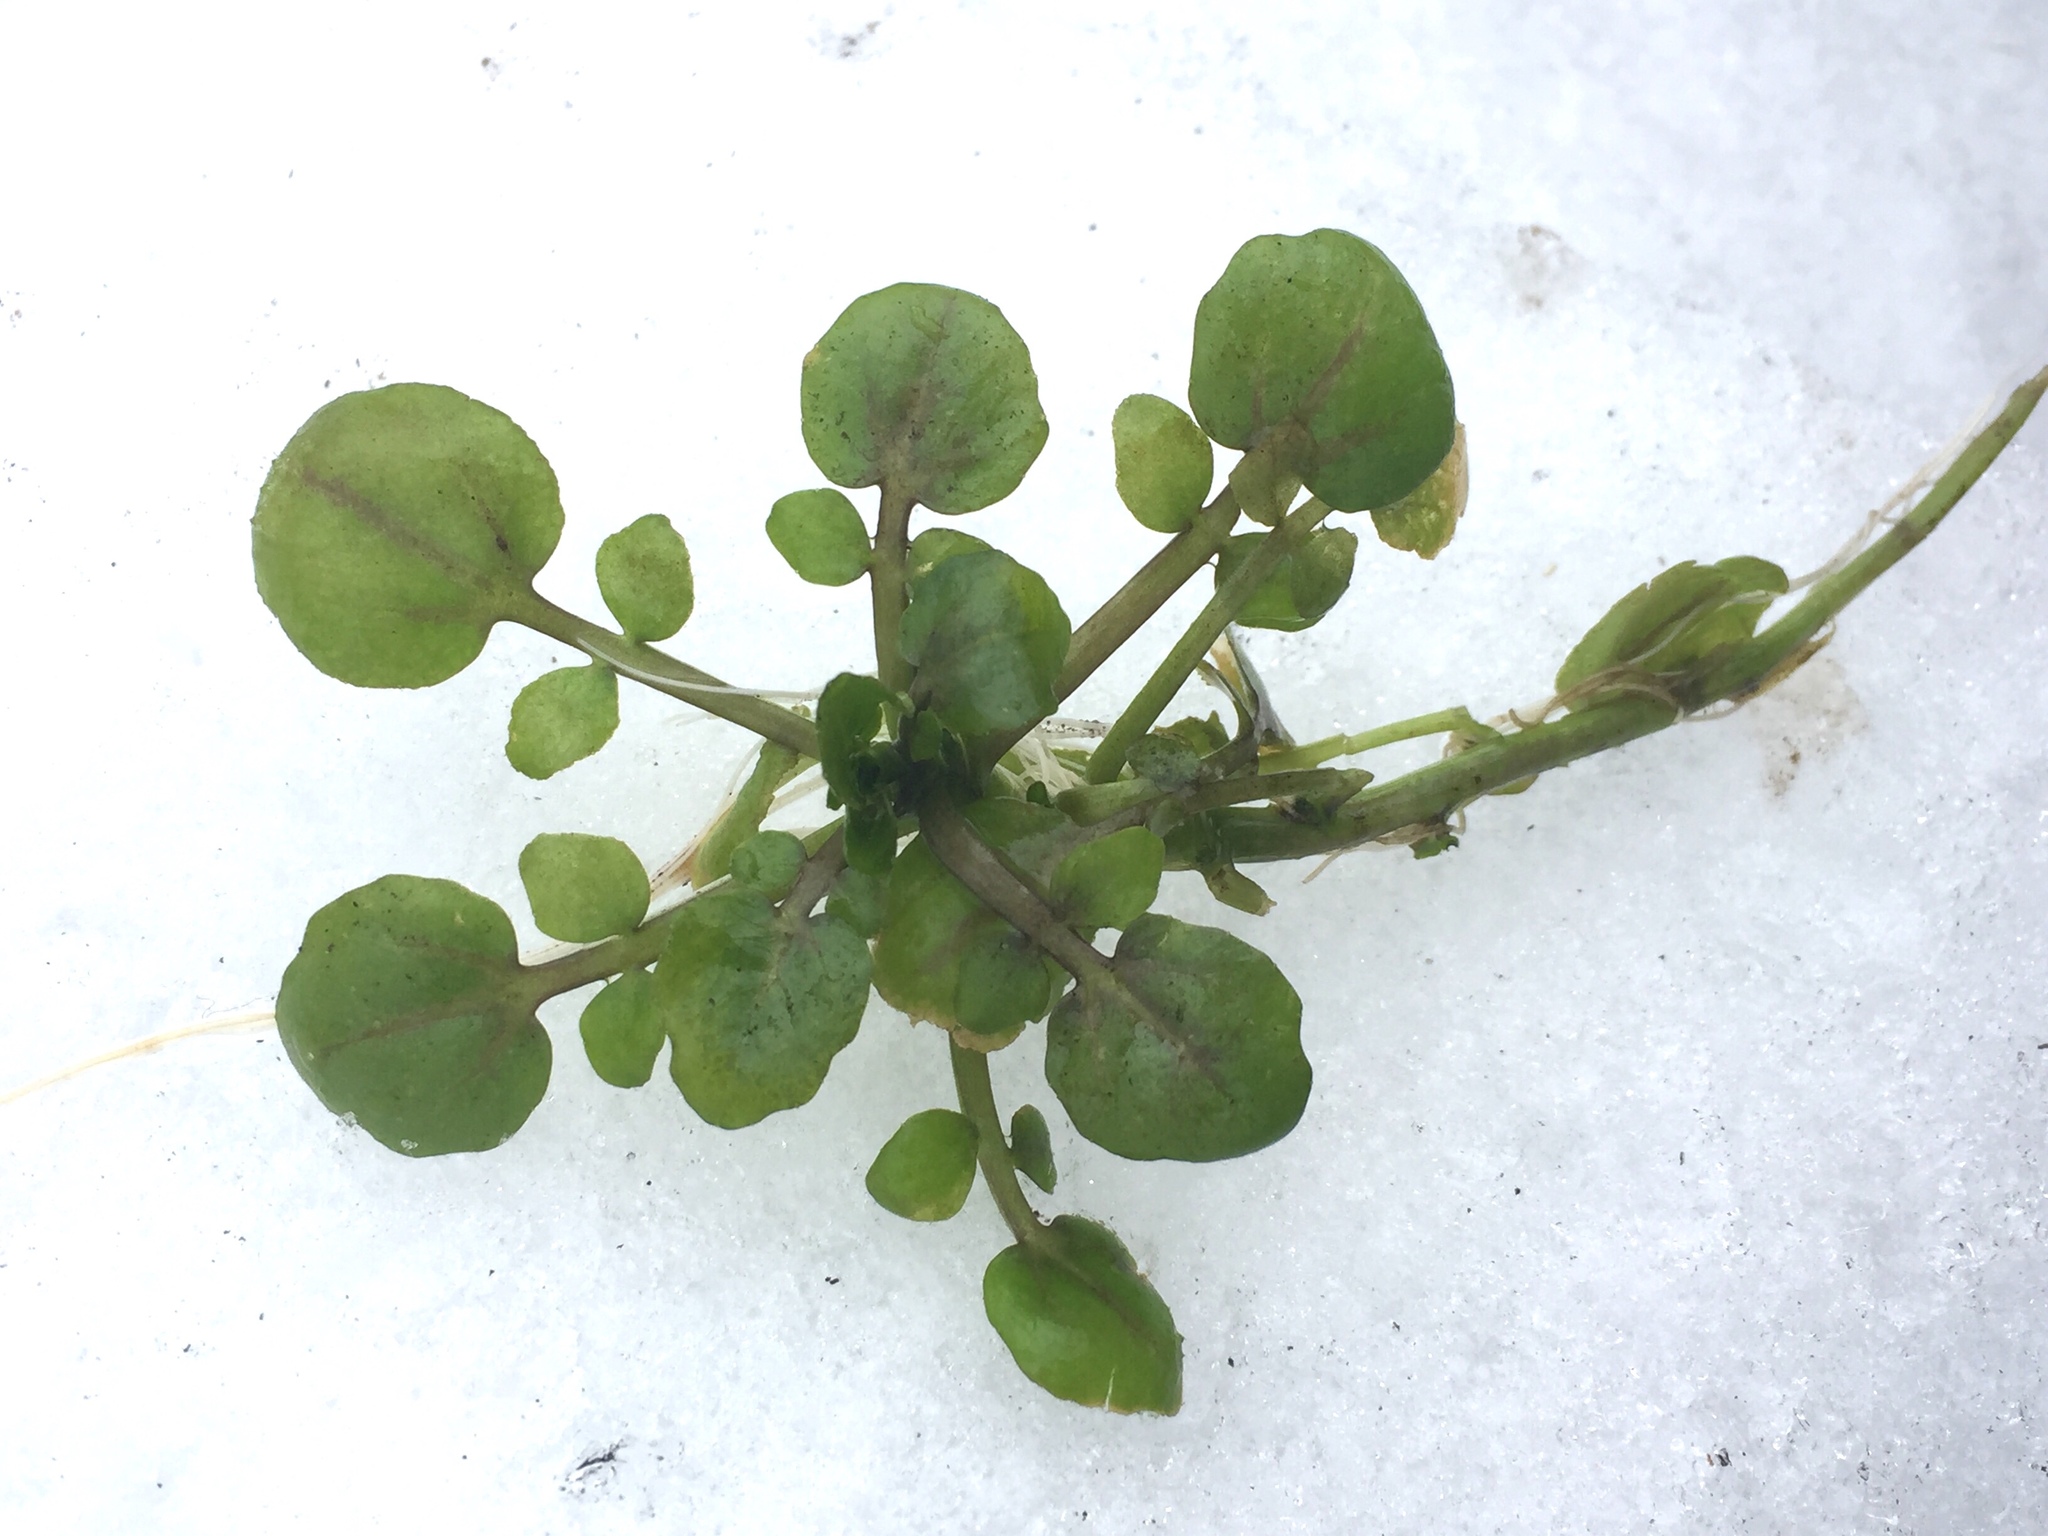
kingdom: Plantae
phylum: Tracheophyta
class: Magnoliopsida
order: Brassicales
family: Brassicaceae
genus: Nasturtium
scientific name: Nasturtium officinale
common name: Watercress
